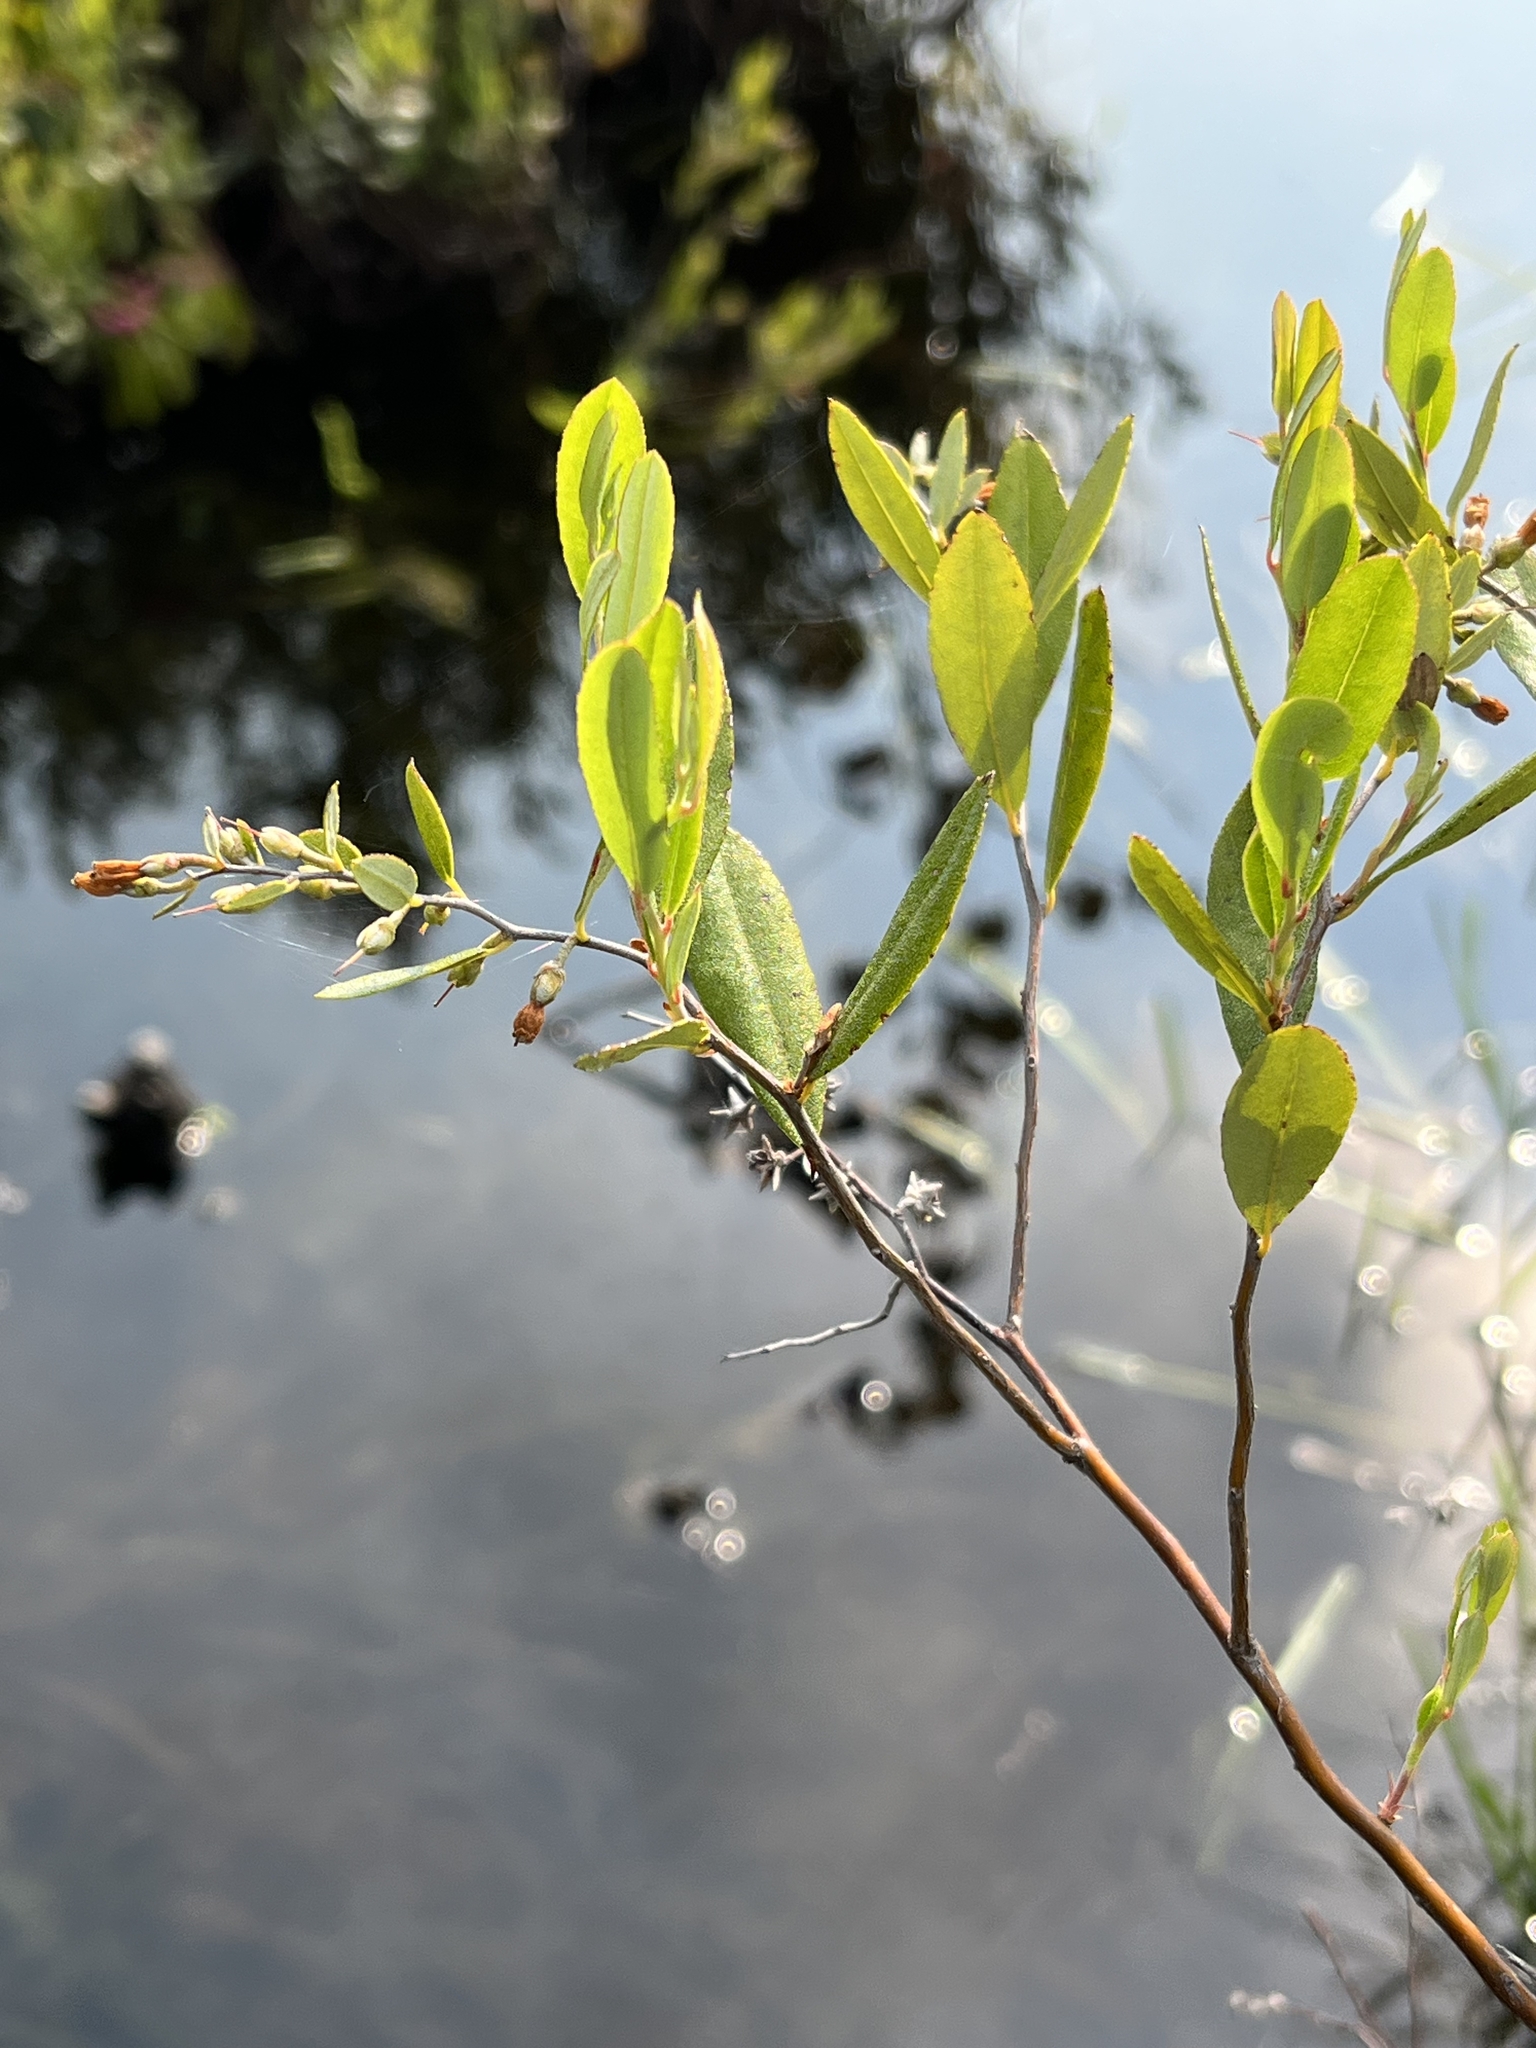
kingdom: Plantae
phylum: Tracheophyta
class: Magnoliopsida
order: Ericales
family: Ericaceae
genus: Chamaedaphne
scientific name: Chamaedaphne calyculata
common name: Leatherleaf
